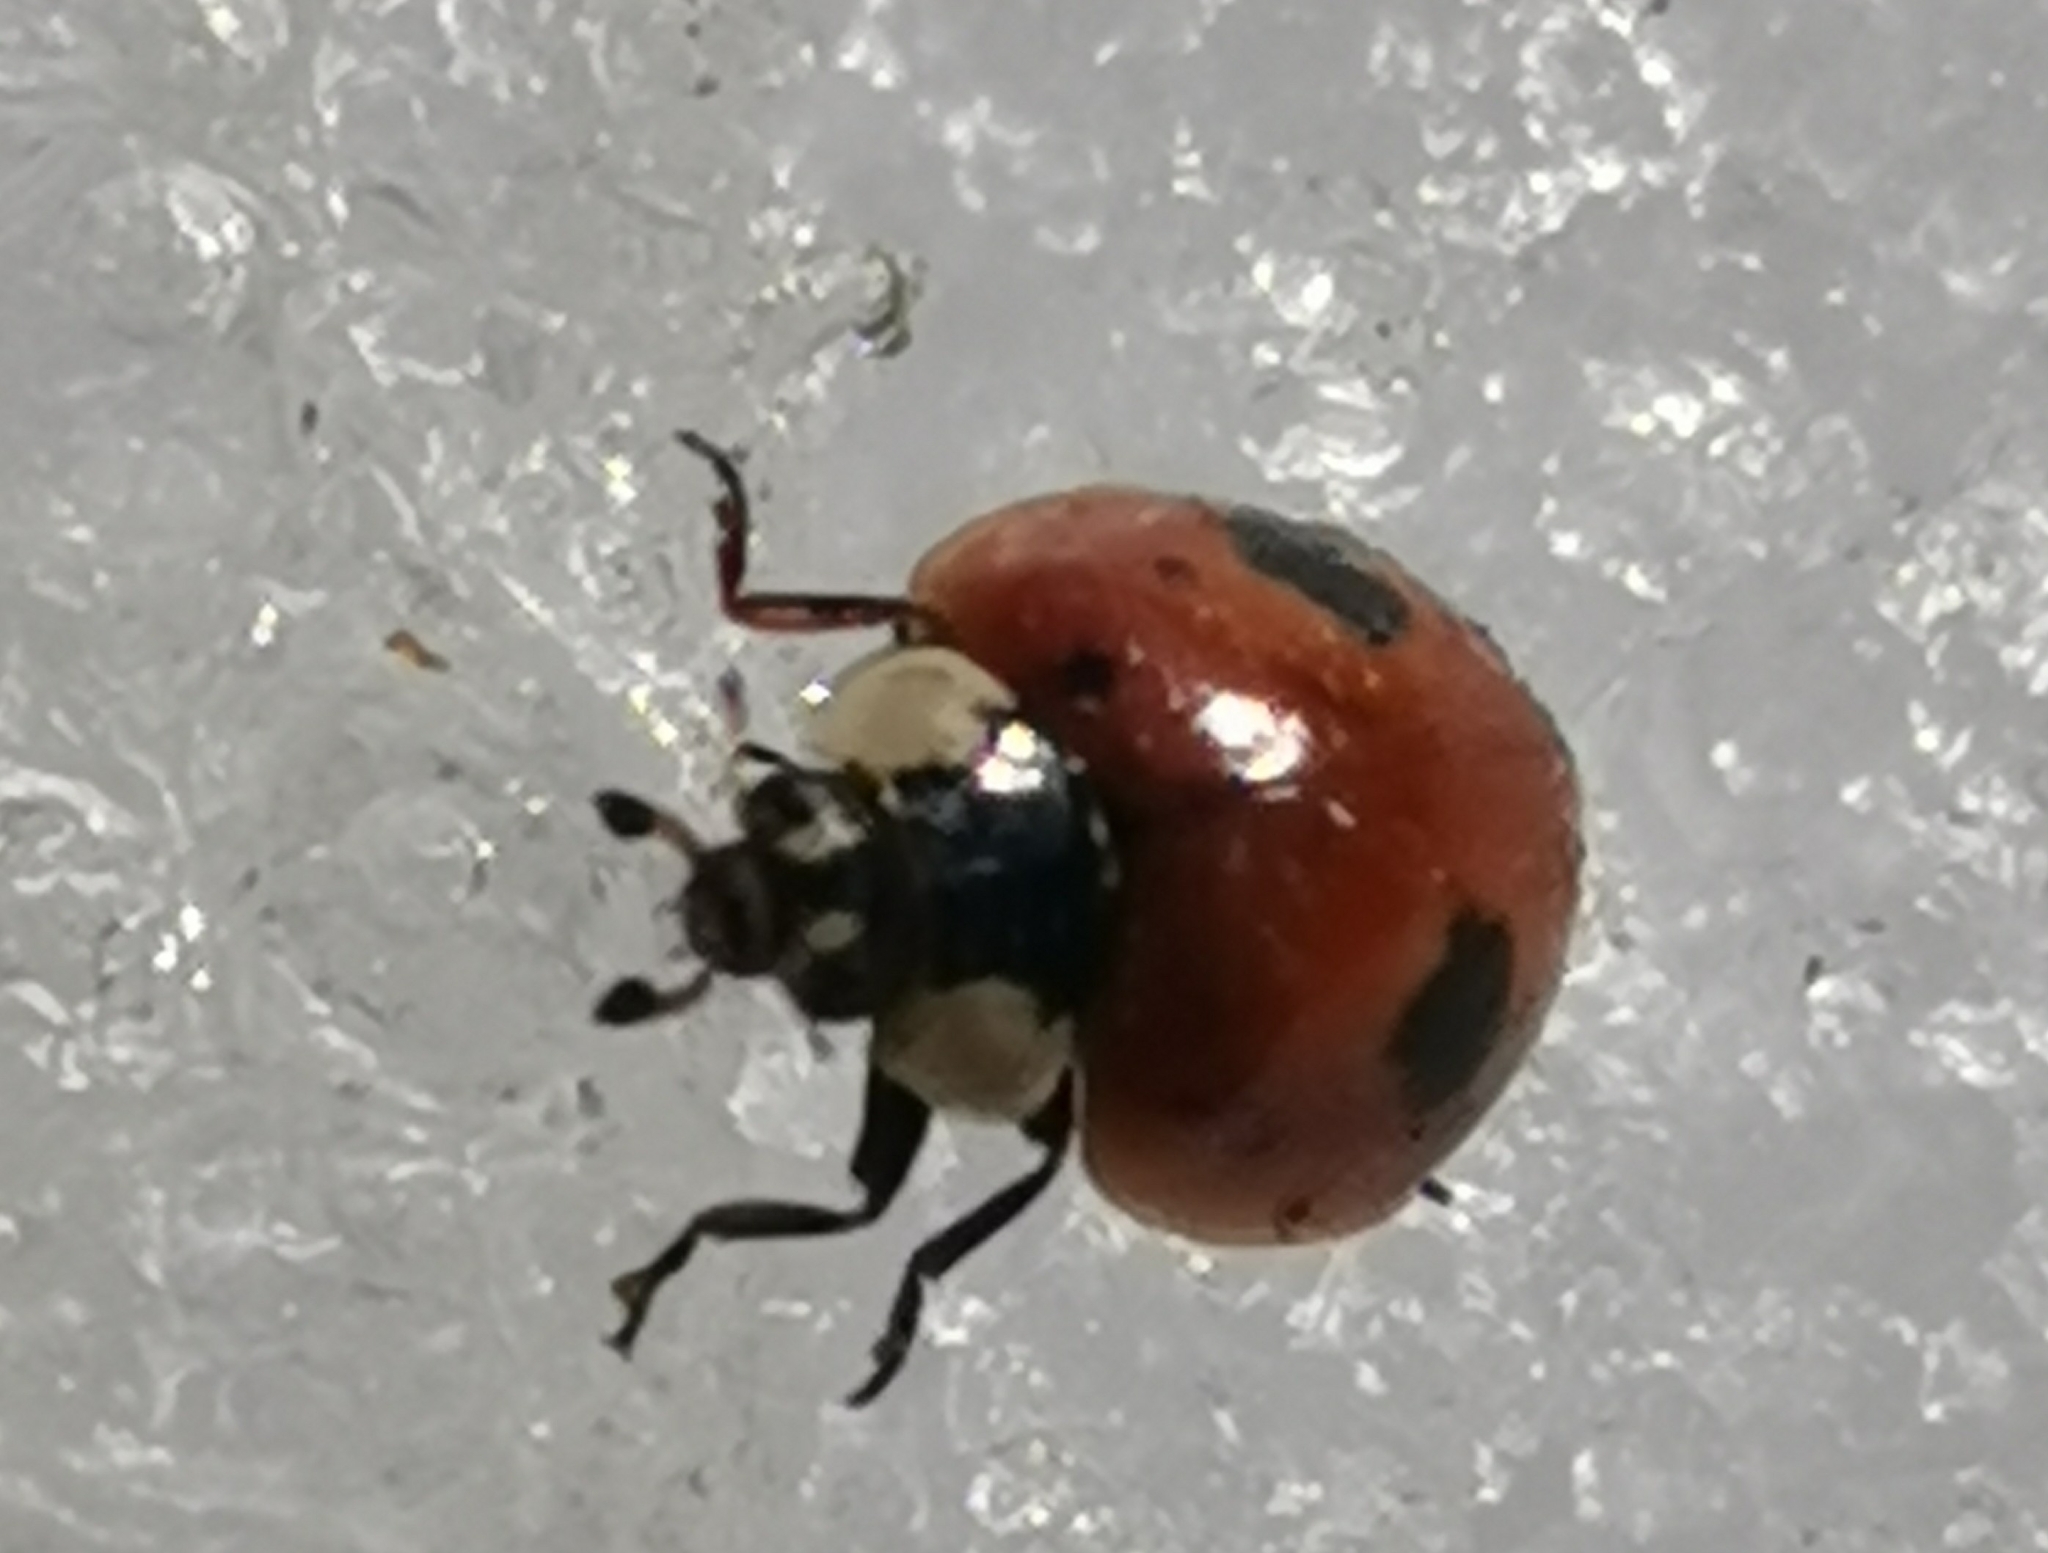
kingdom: Animalia
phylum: Arthropoda
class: Insecta
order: Coleoptera
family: Coccinellidae
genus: Adalia
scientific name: Adalia bipunctata
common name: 2-spot ladybird
